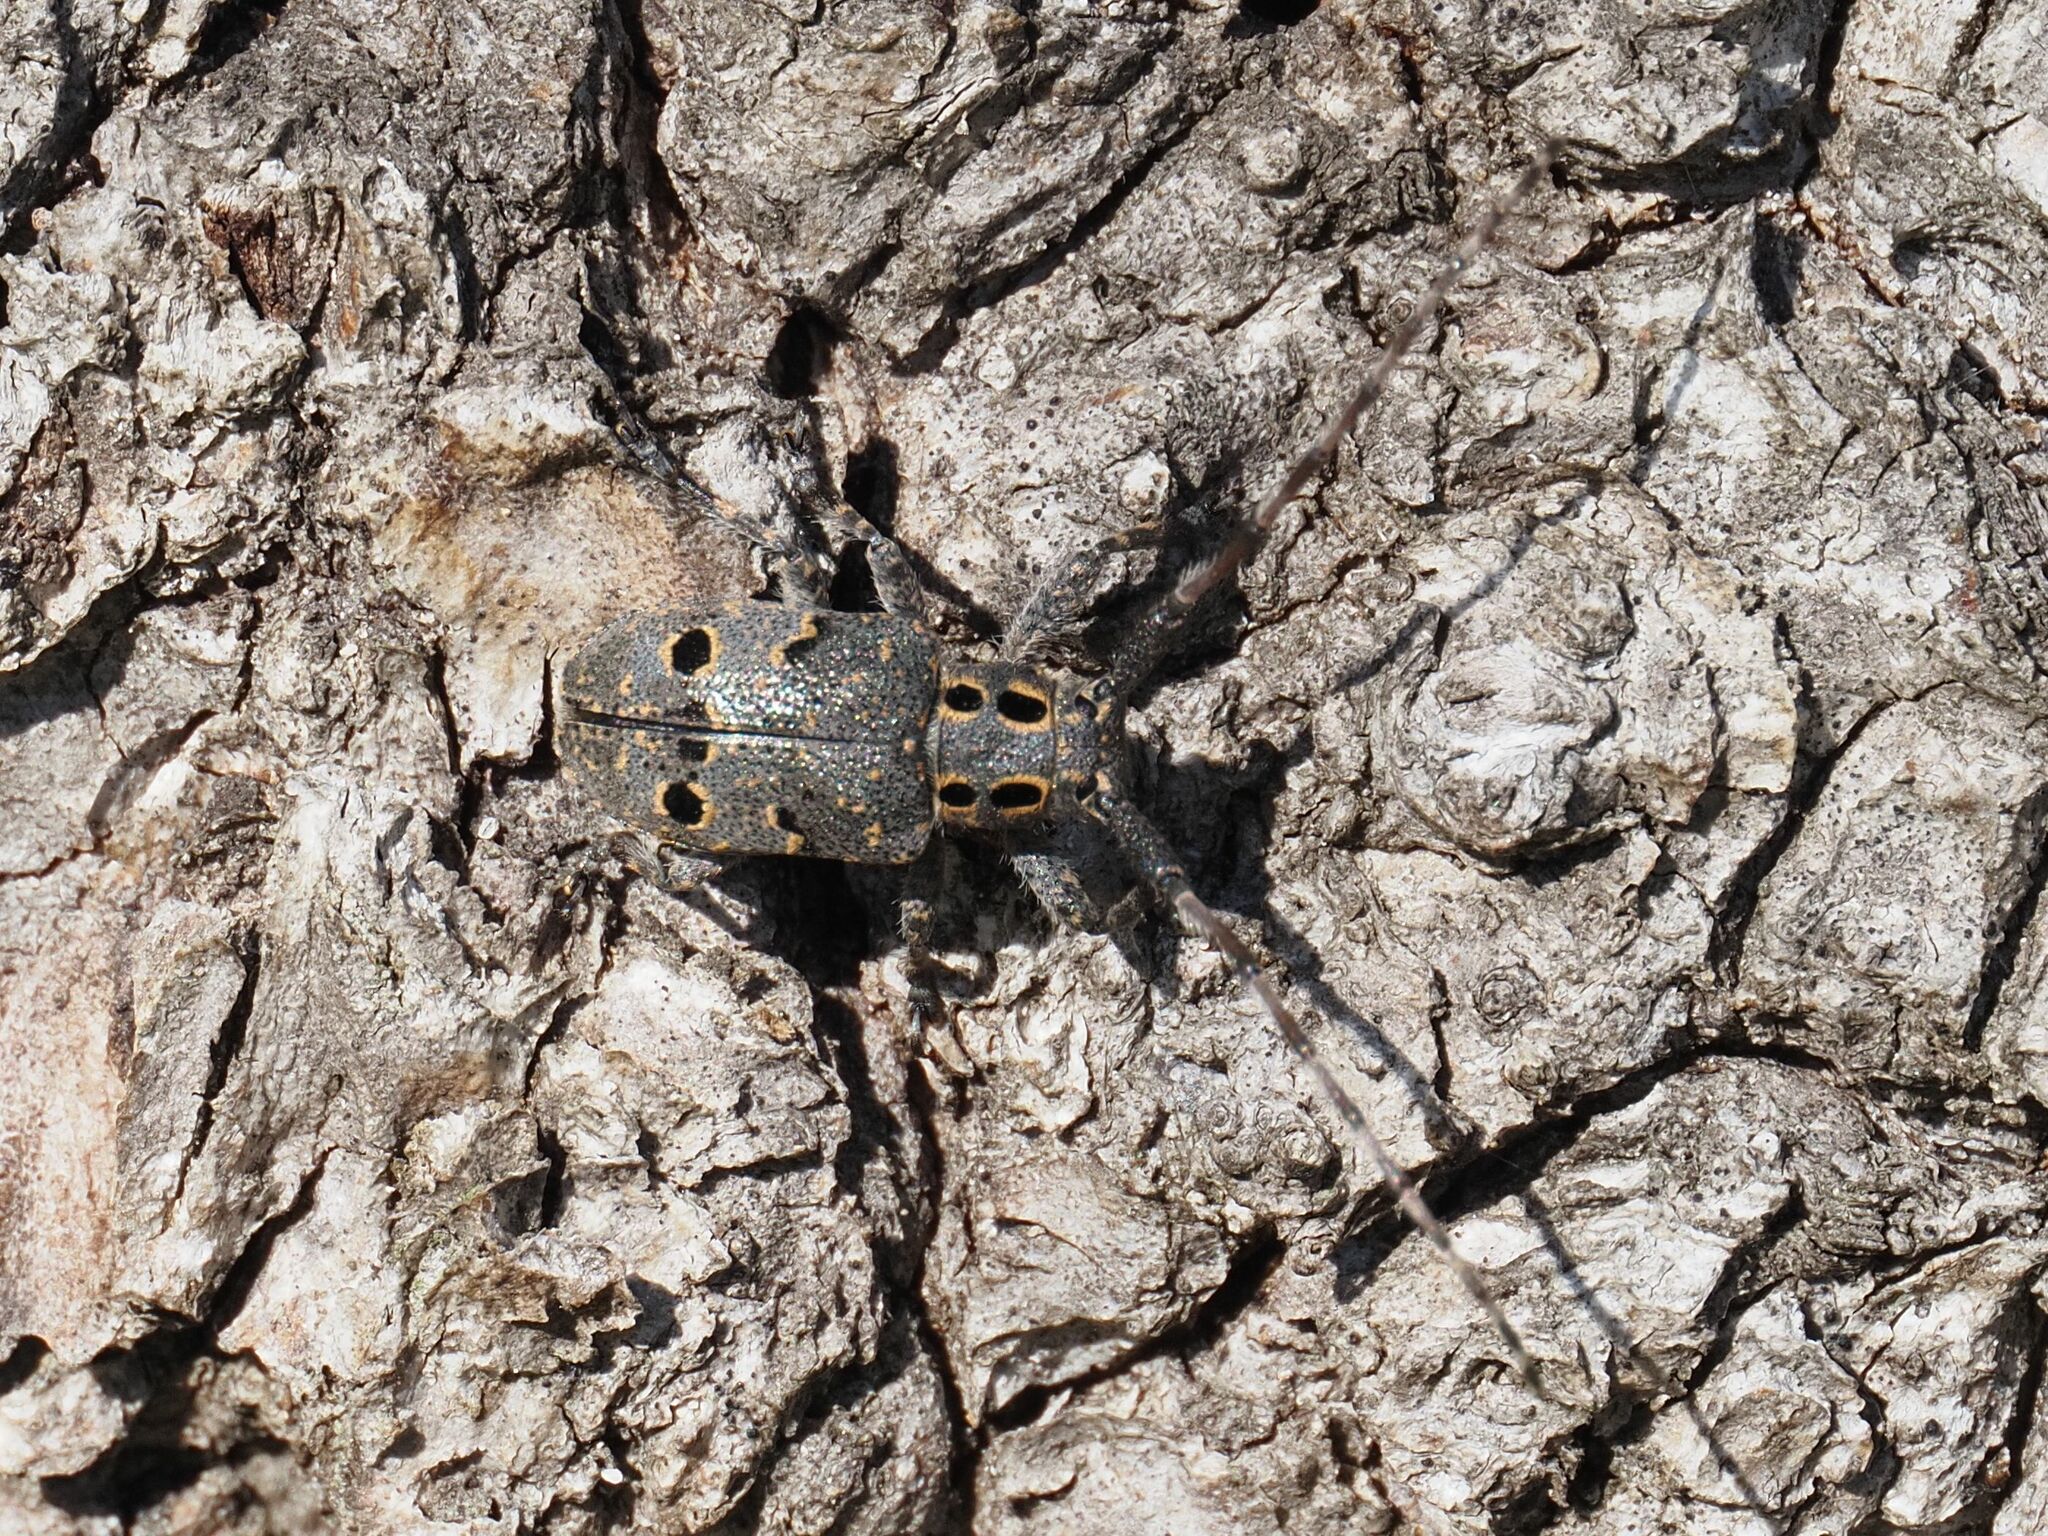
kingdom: Animalia
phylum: Arthropoda
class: Insecta
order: Coleoptera
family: Cerambycidae
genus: Mesosa
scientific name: Mesosa curculionoides
